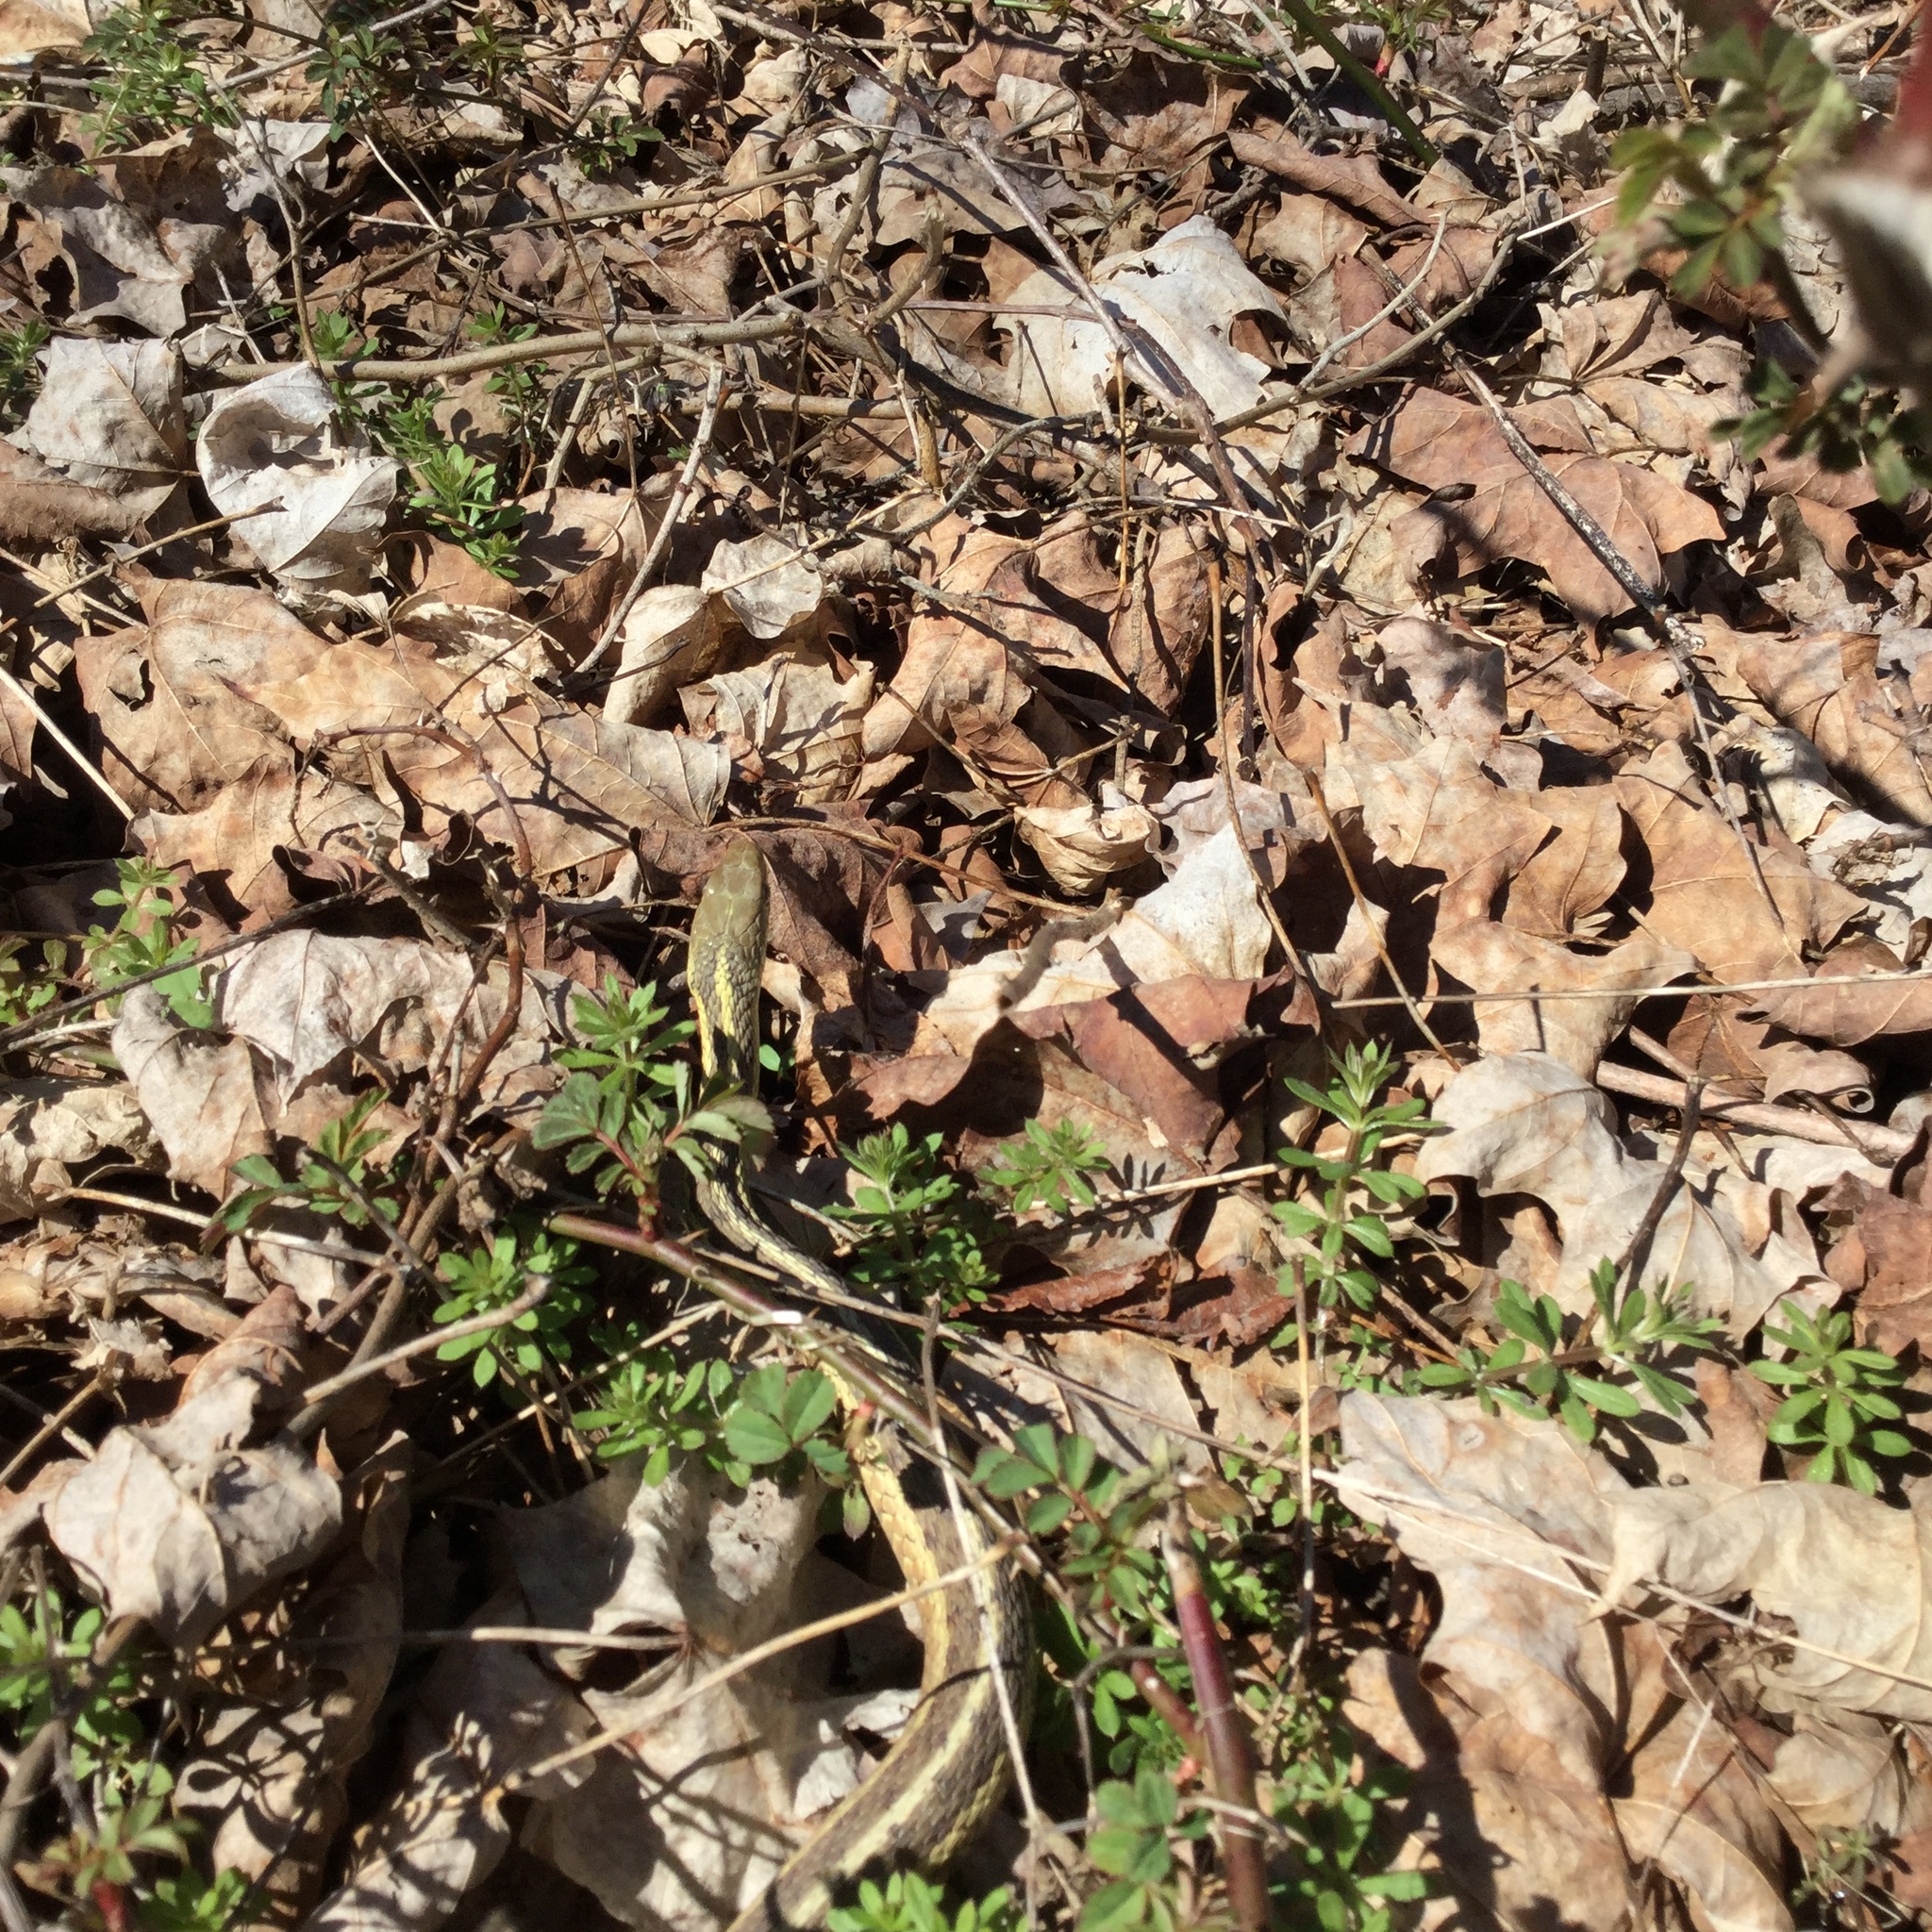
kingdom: Animalia
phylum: Chordata
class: Squamata
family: Colubridae
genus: Thamnophis
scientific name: Thamnophis sirtalis
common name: Common garter snake
